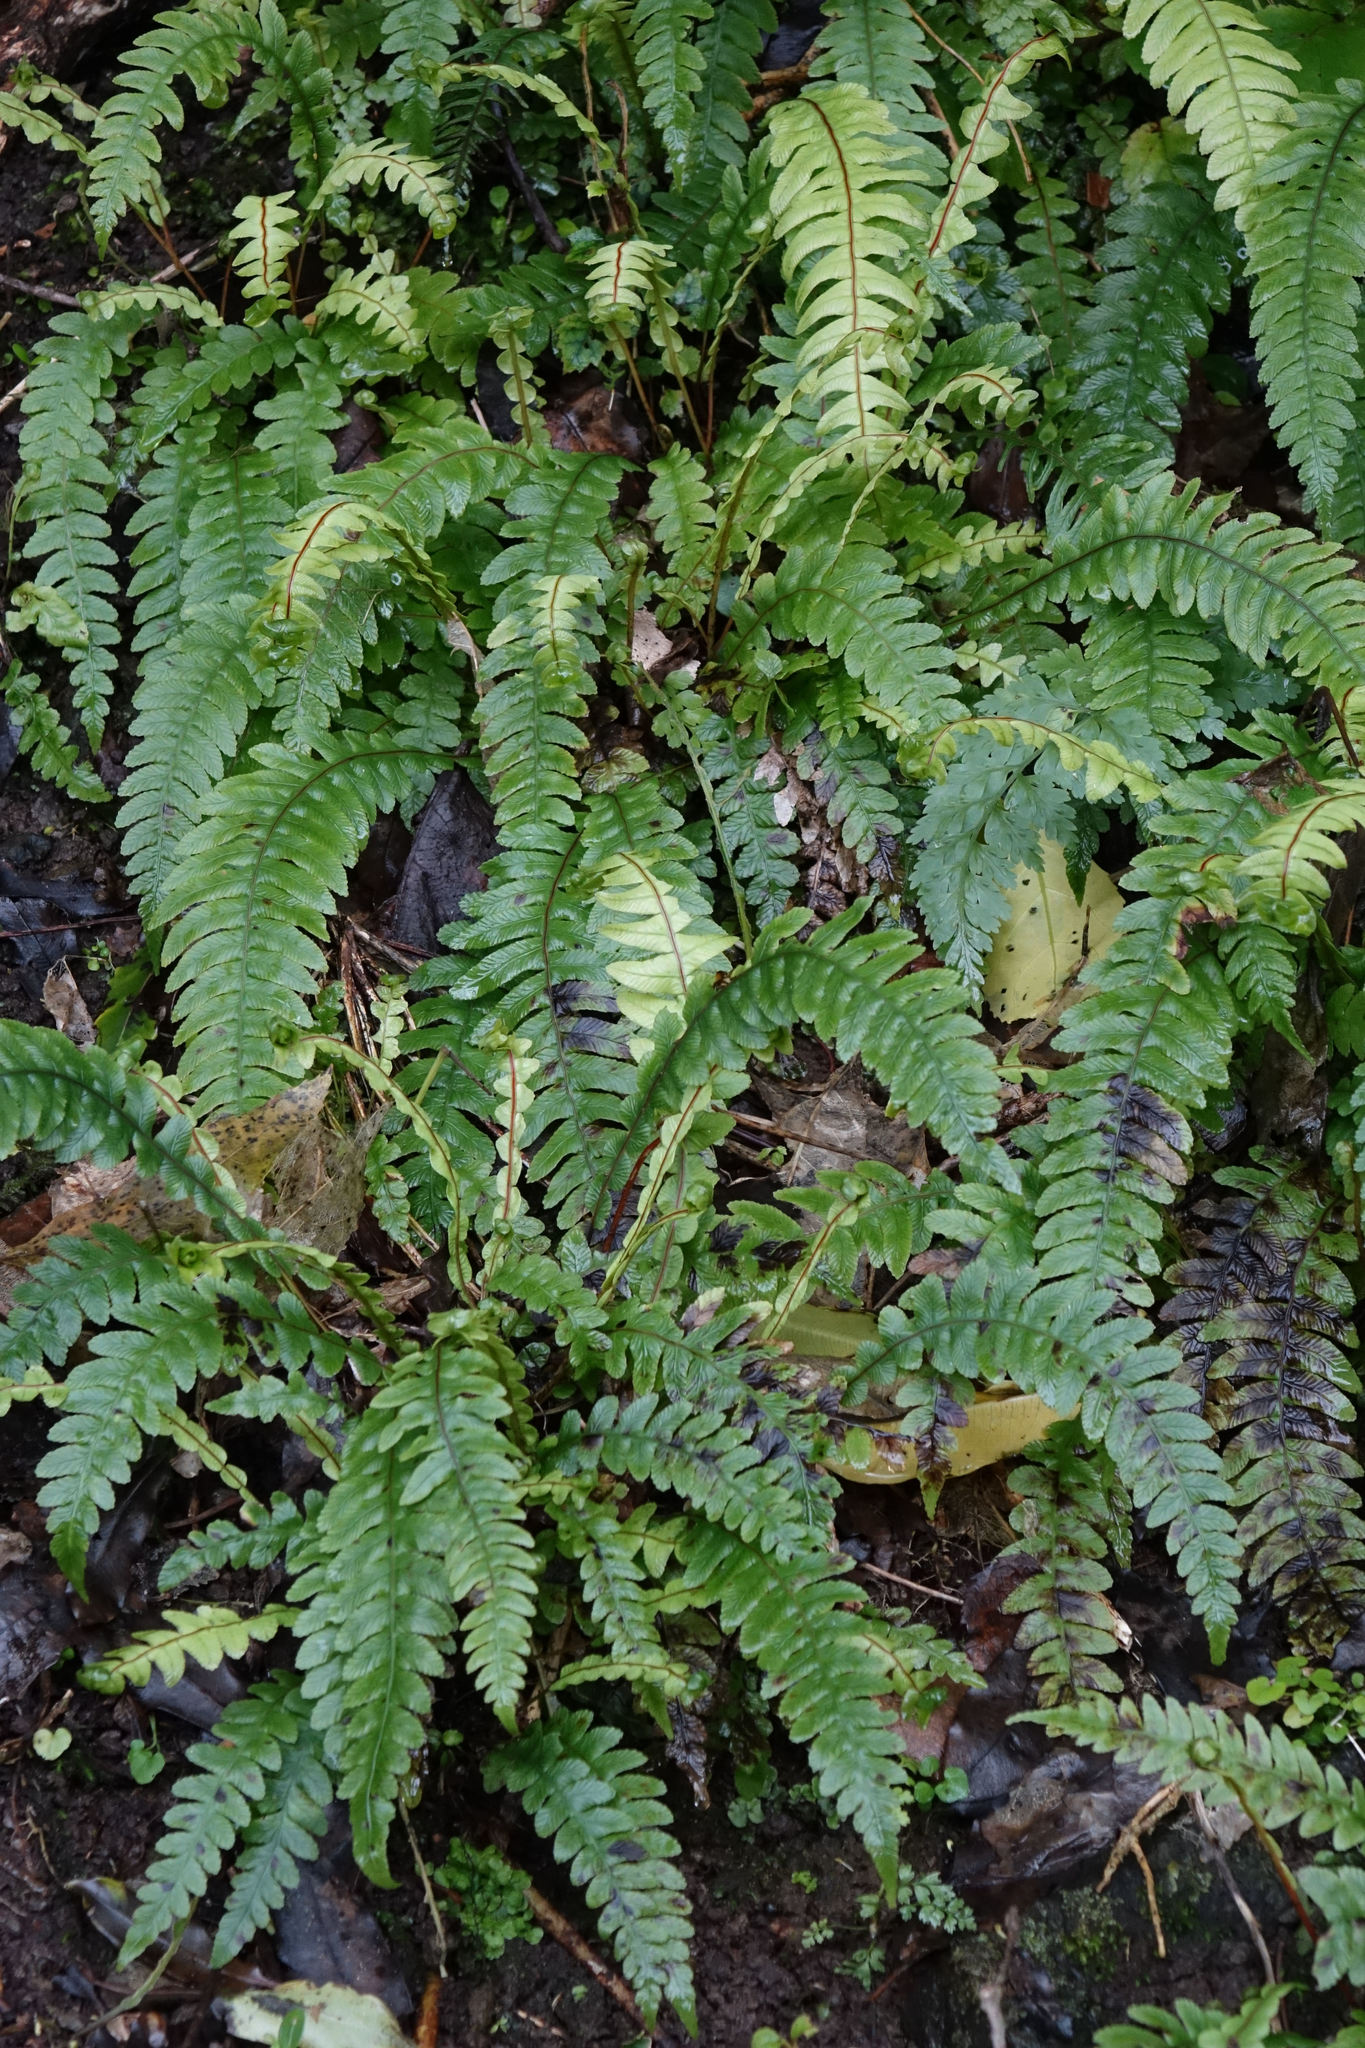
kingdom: Plantae
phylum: Tracheophyta
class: Polypodiopsida
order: Polypodiales
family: Blechnaceae
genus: Austroblechnum
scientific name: Austroblechnum lanceolatum
